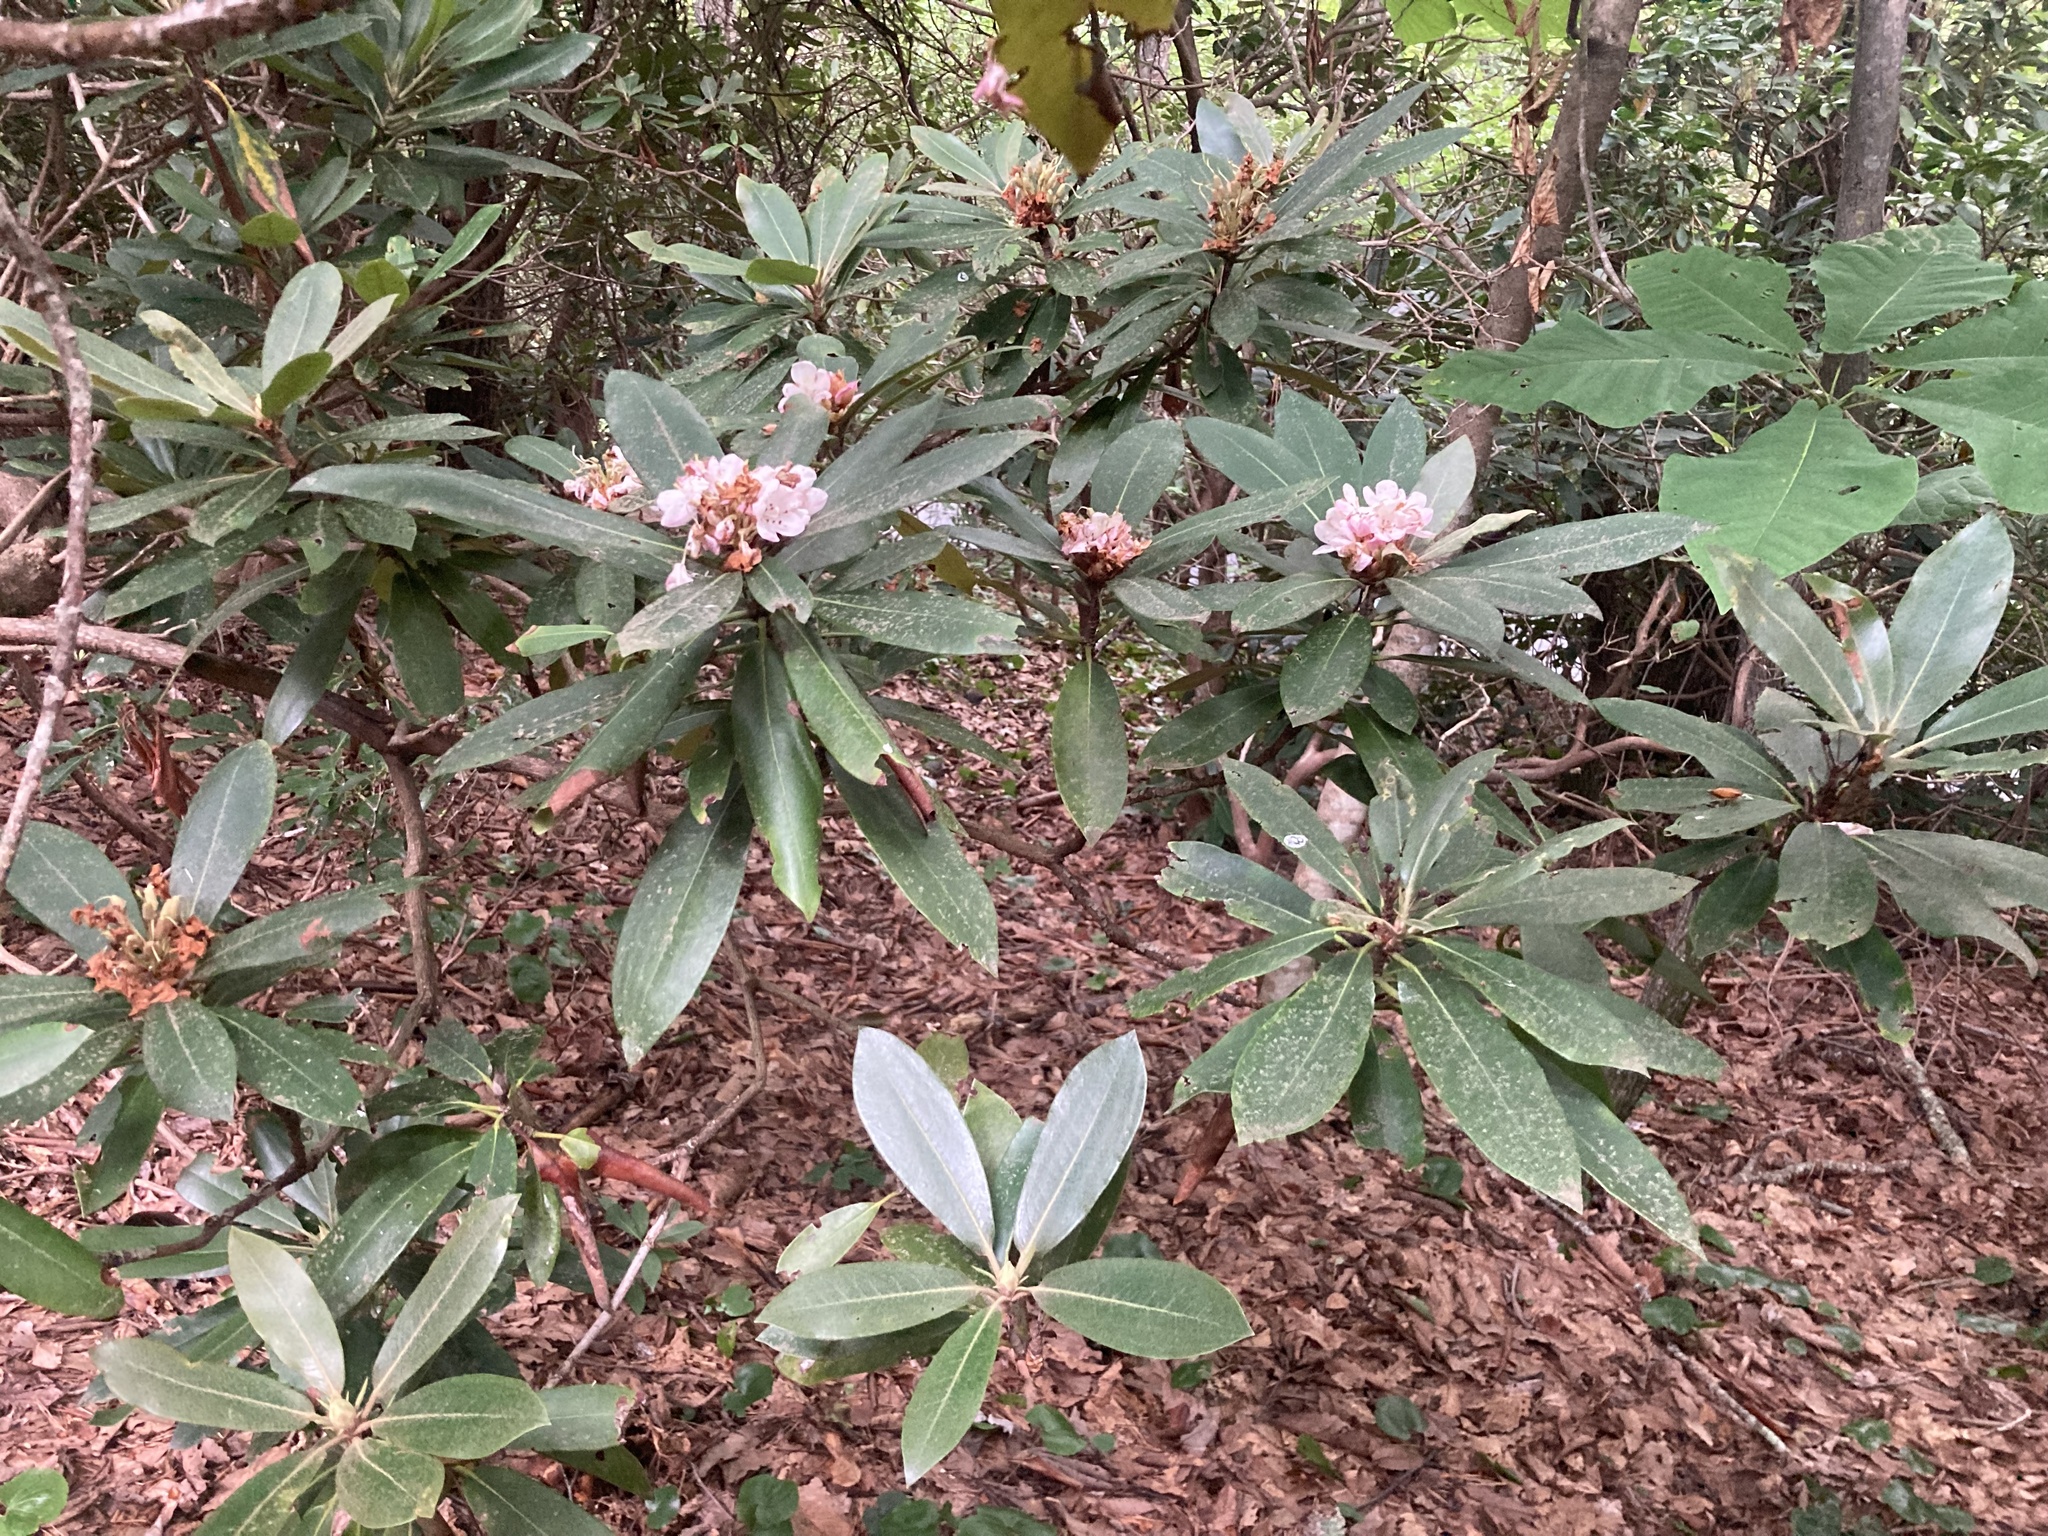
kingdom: Plantae
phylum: Tracheophyta
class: Magnoliopsida
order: Ericales
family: Ericaceae
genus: Rhododendron
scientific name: Rhododendron maximum
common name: Great rhododendron
